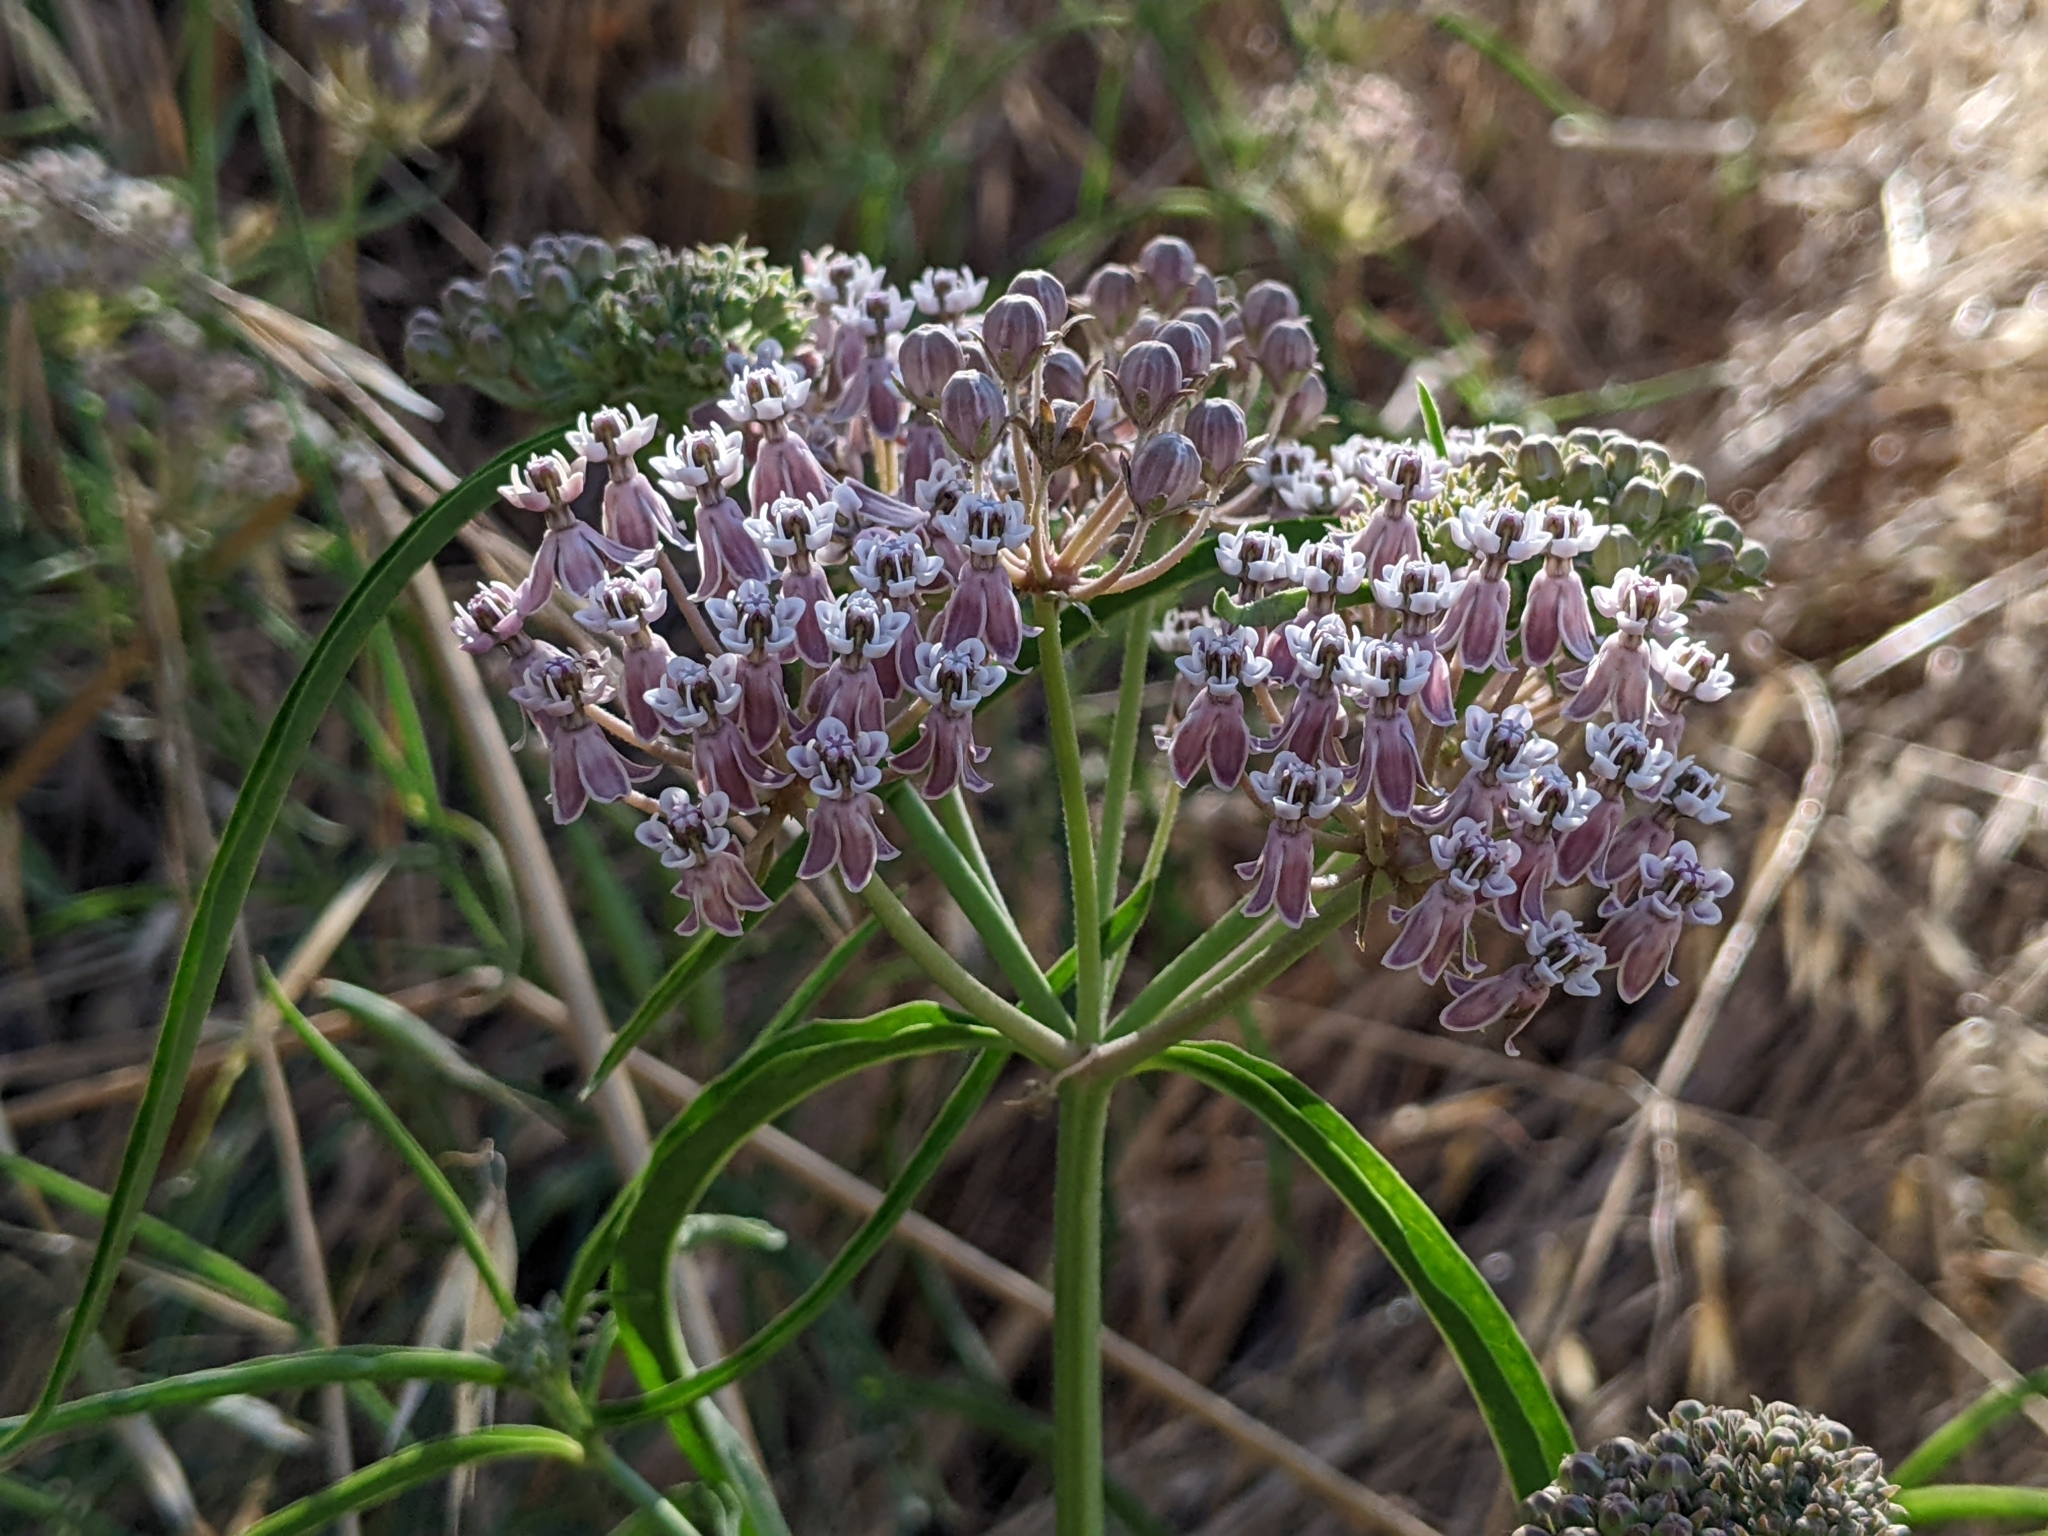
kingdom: Plantae
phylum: Tracheophyta
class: Magnoliopsida
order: Gentianales
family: Apocynaceae
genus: Asclepias
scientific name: Asclepias fascicularis
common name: Mexican milkweed
